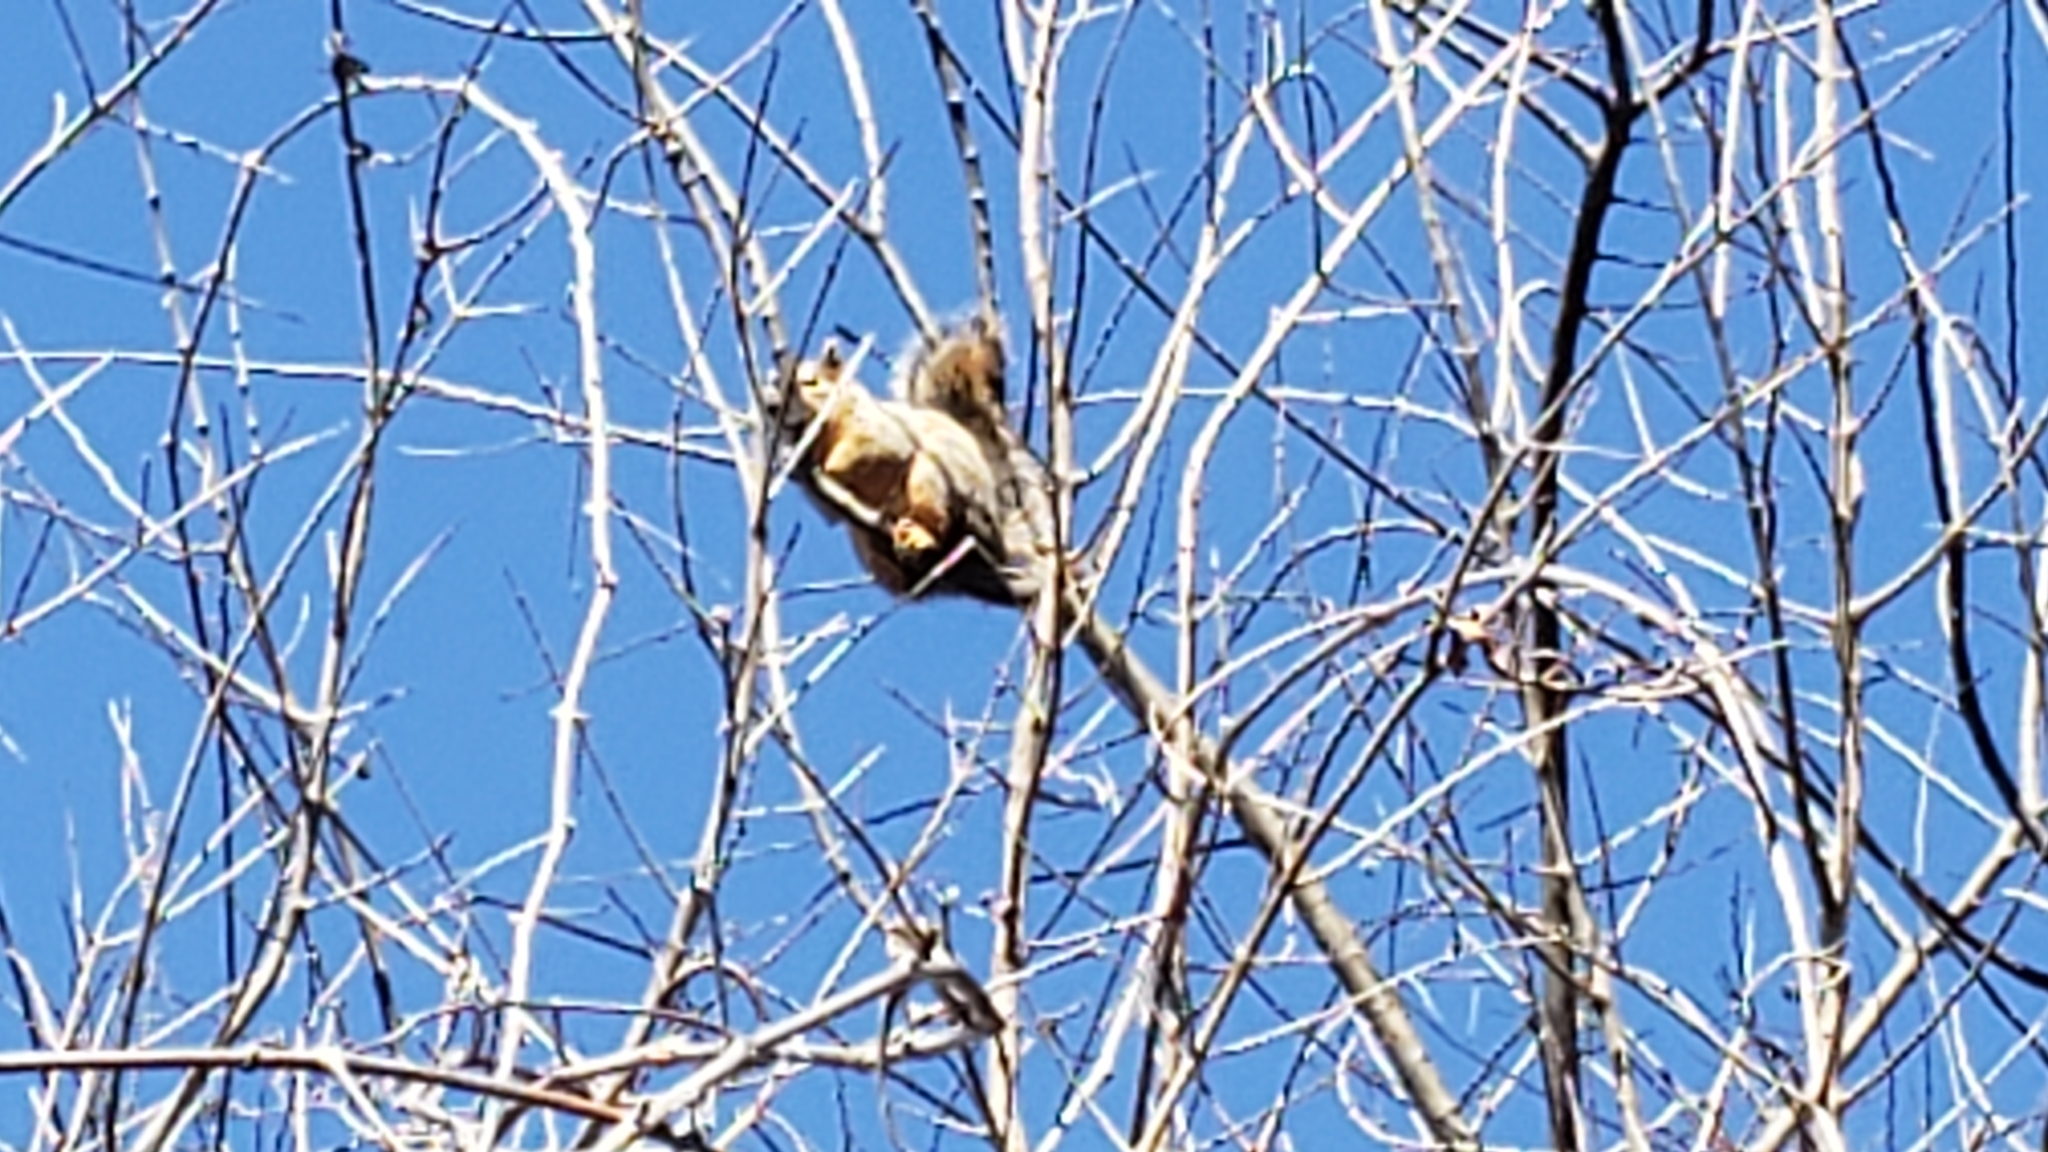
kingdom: Animalia
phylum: Chordata
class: Mammalia
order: Rodentia
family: Sciuridae
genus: Sciurus
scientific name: Sciurus niger
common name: Fox squirrel
